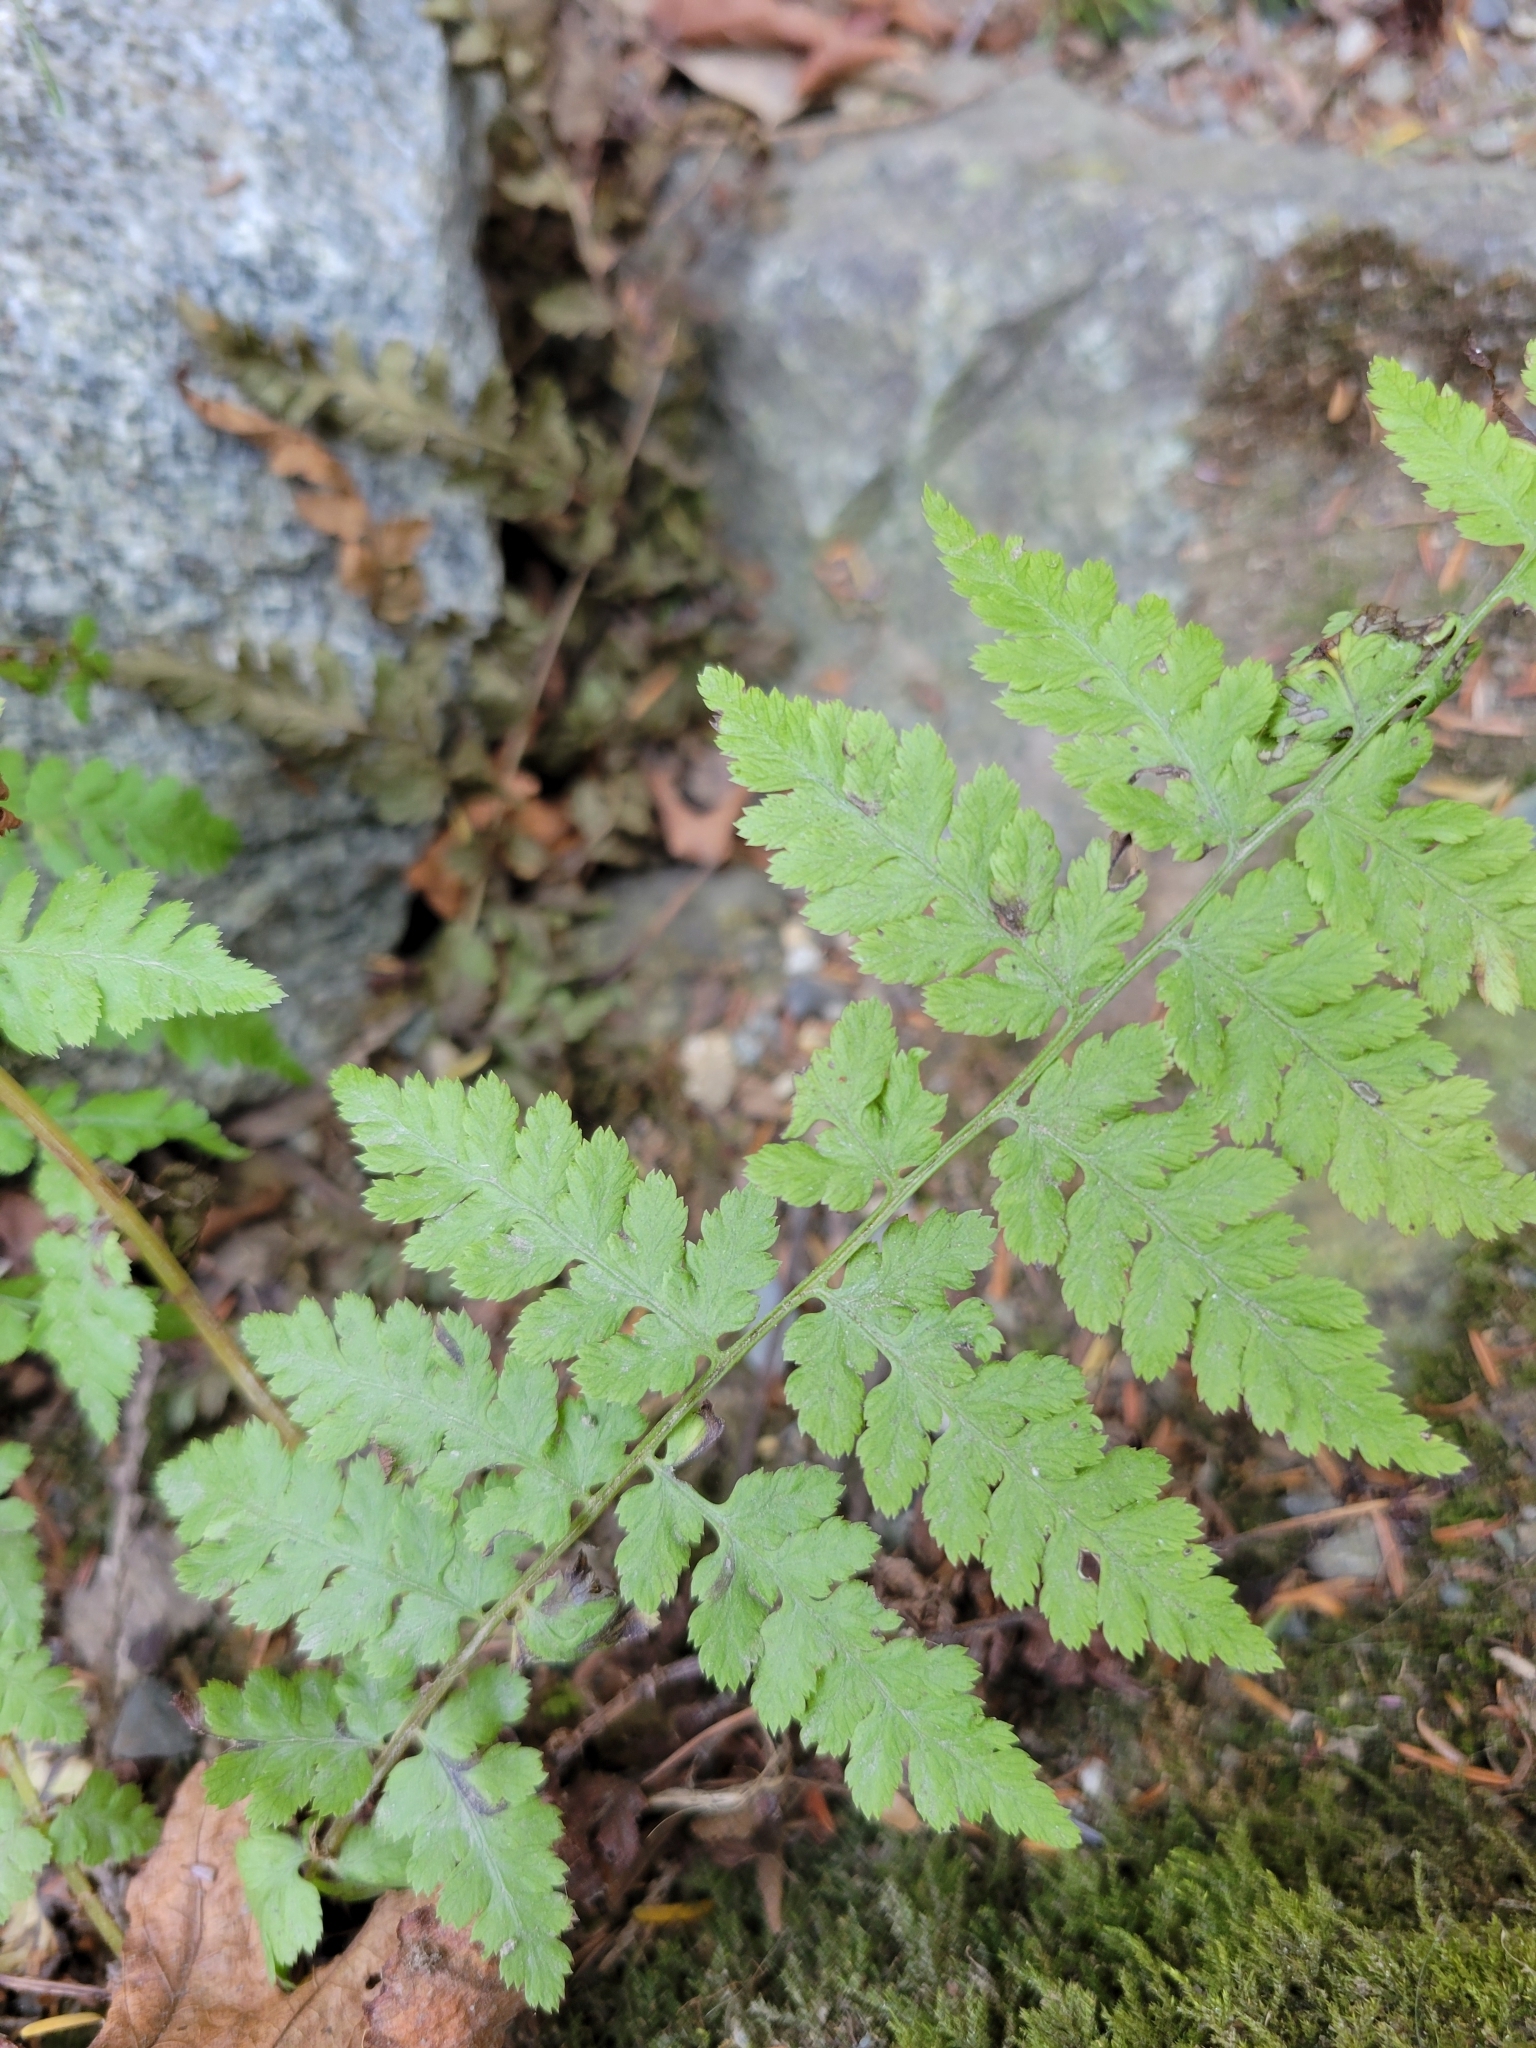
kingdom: Plantae
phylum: Tracheophyta
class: Polypodiopsida
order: Polypodiales
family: Athyriaceae
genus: Athyrium
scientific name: Athyrium filix-femina
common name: Lady fern
